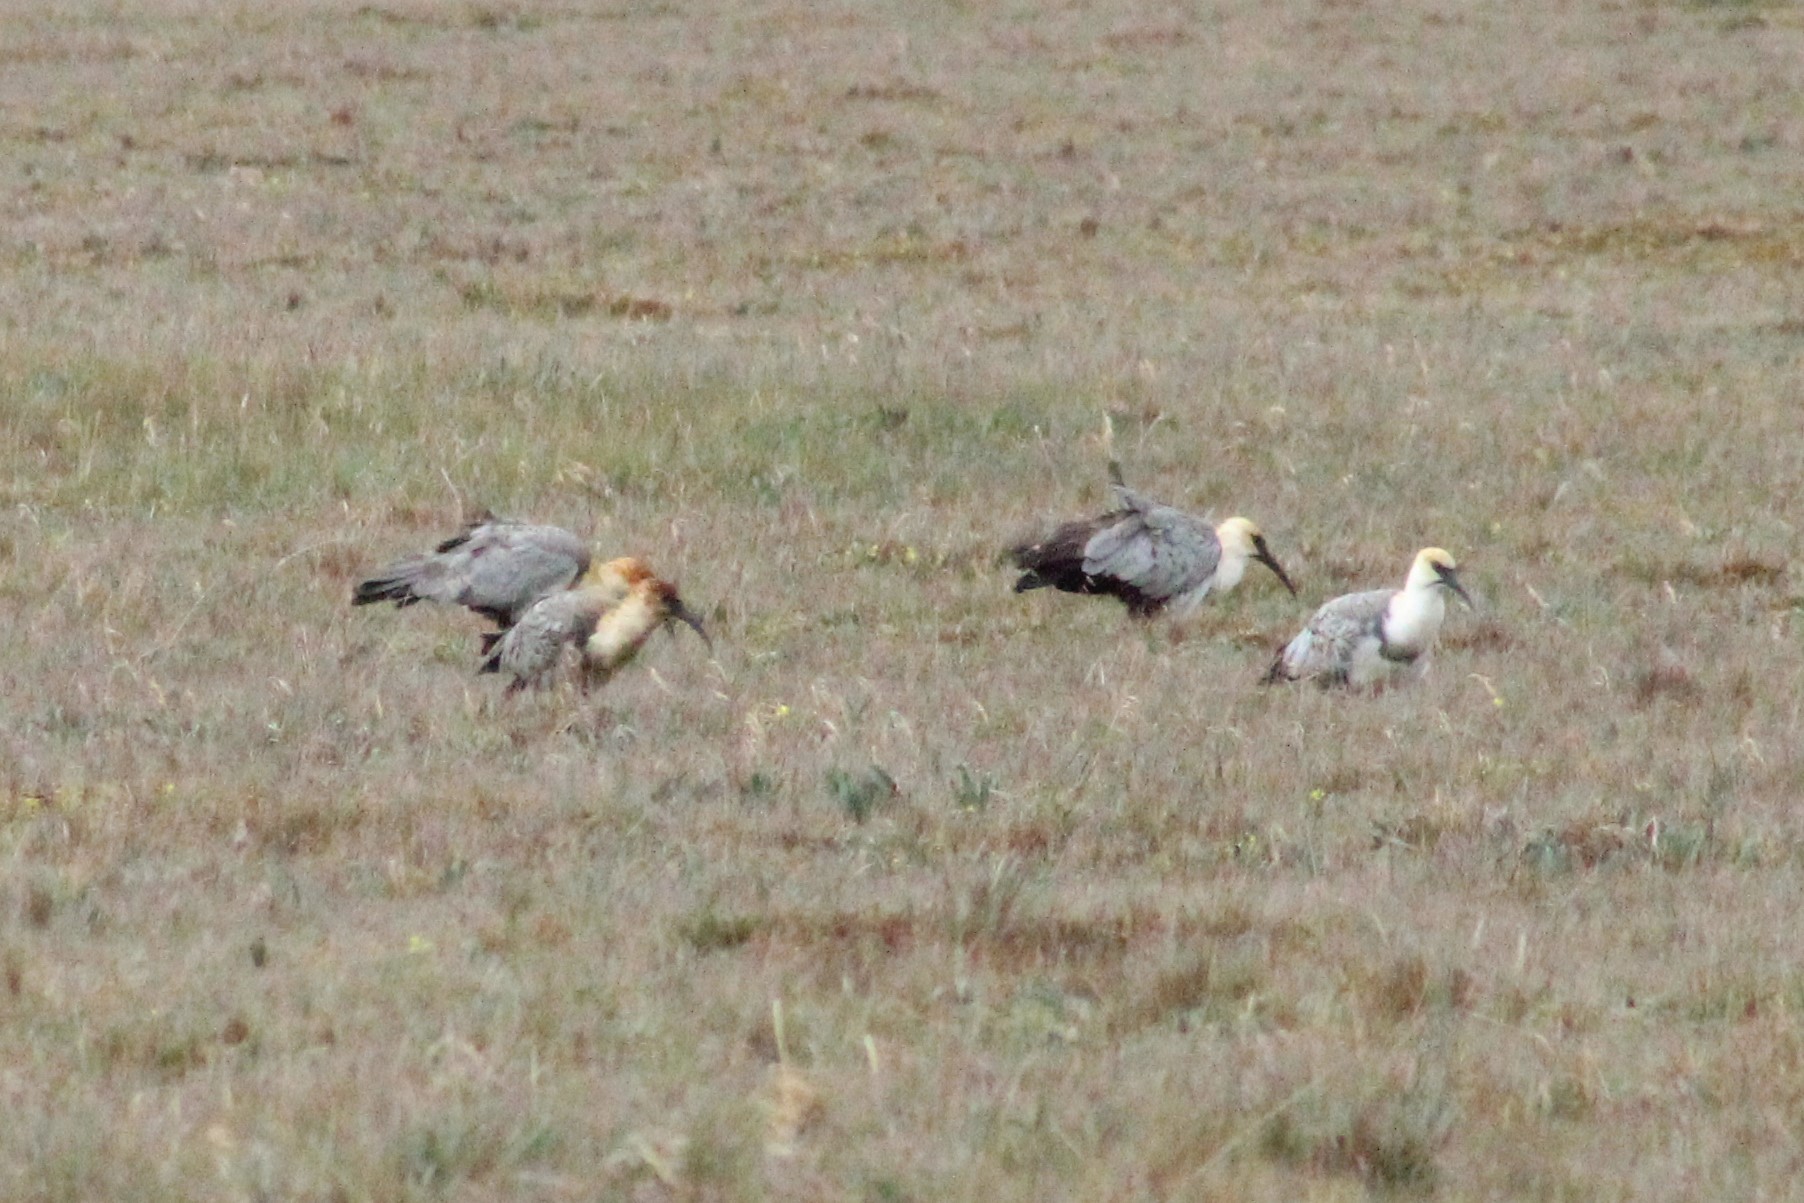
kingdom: Animalia
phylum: Chordata
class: Aves
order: Pelecaniformes
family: Threskiornithidae
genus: Theristicus
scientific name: Theristicus melanopis
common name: Black-faced ibis
